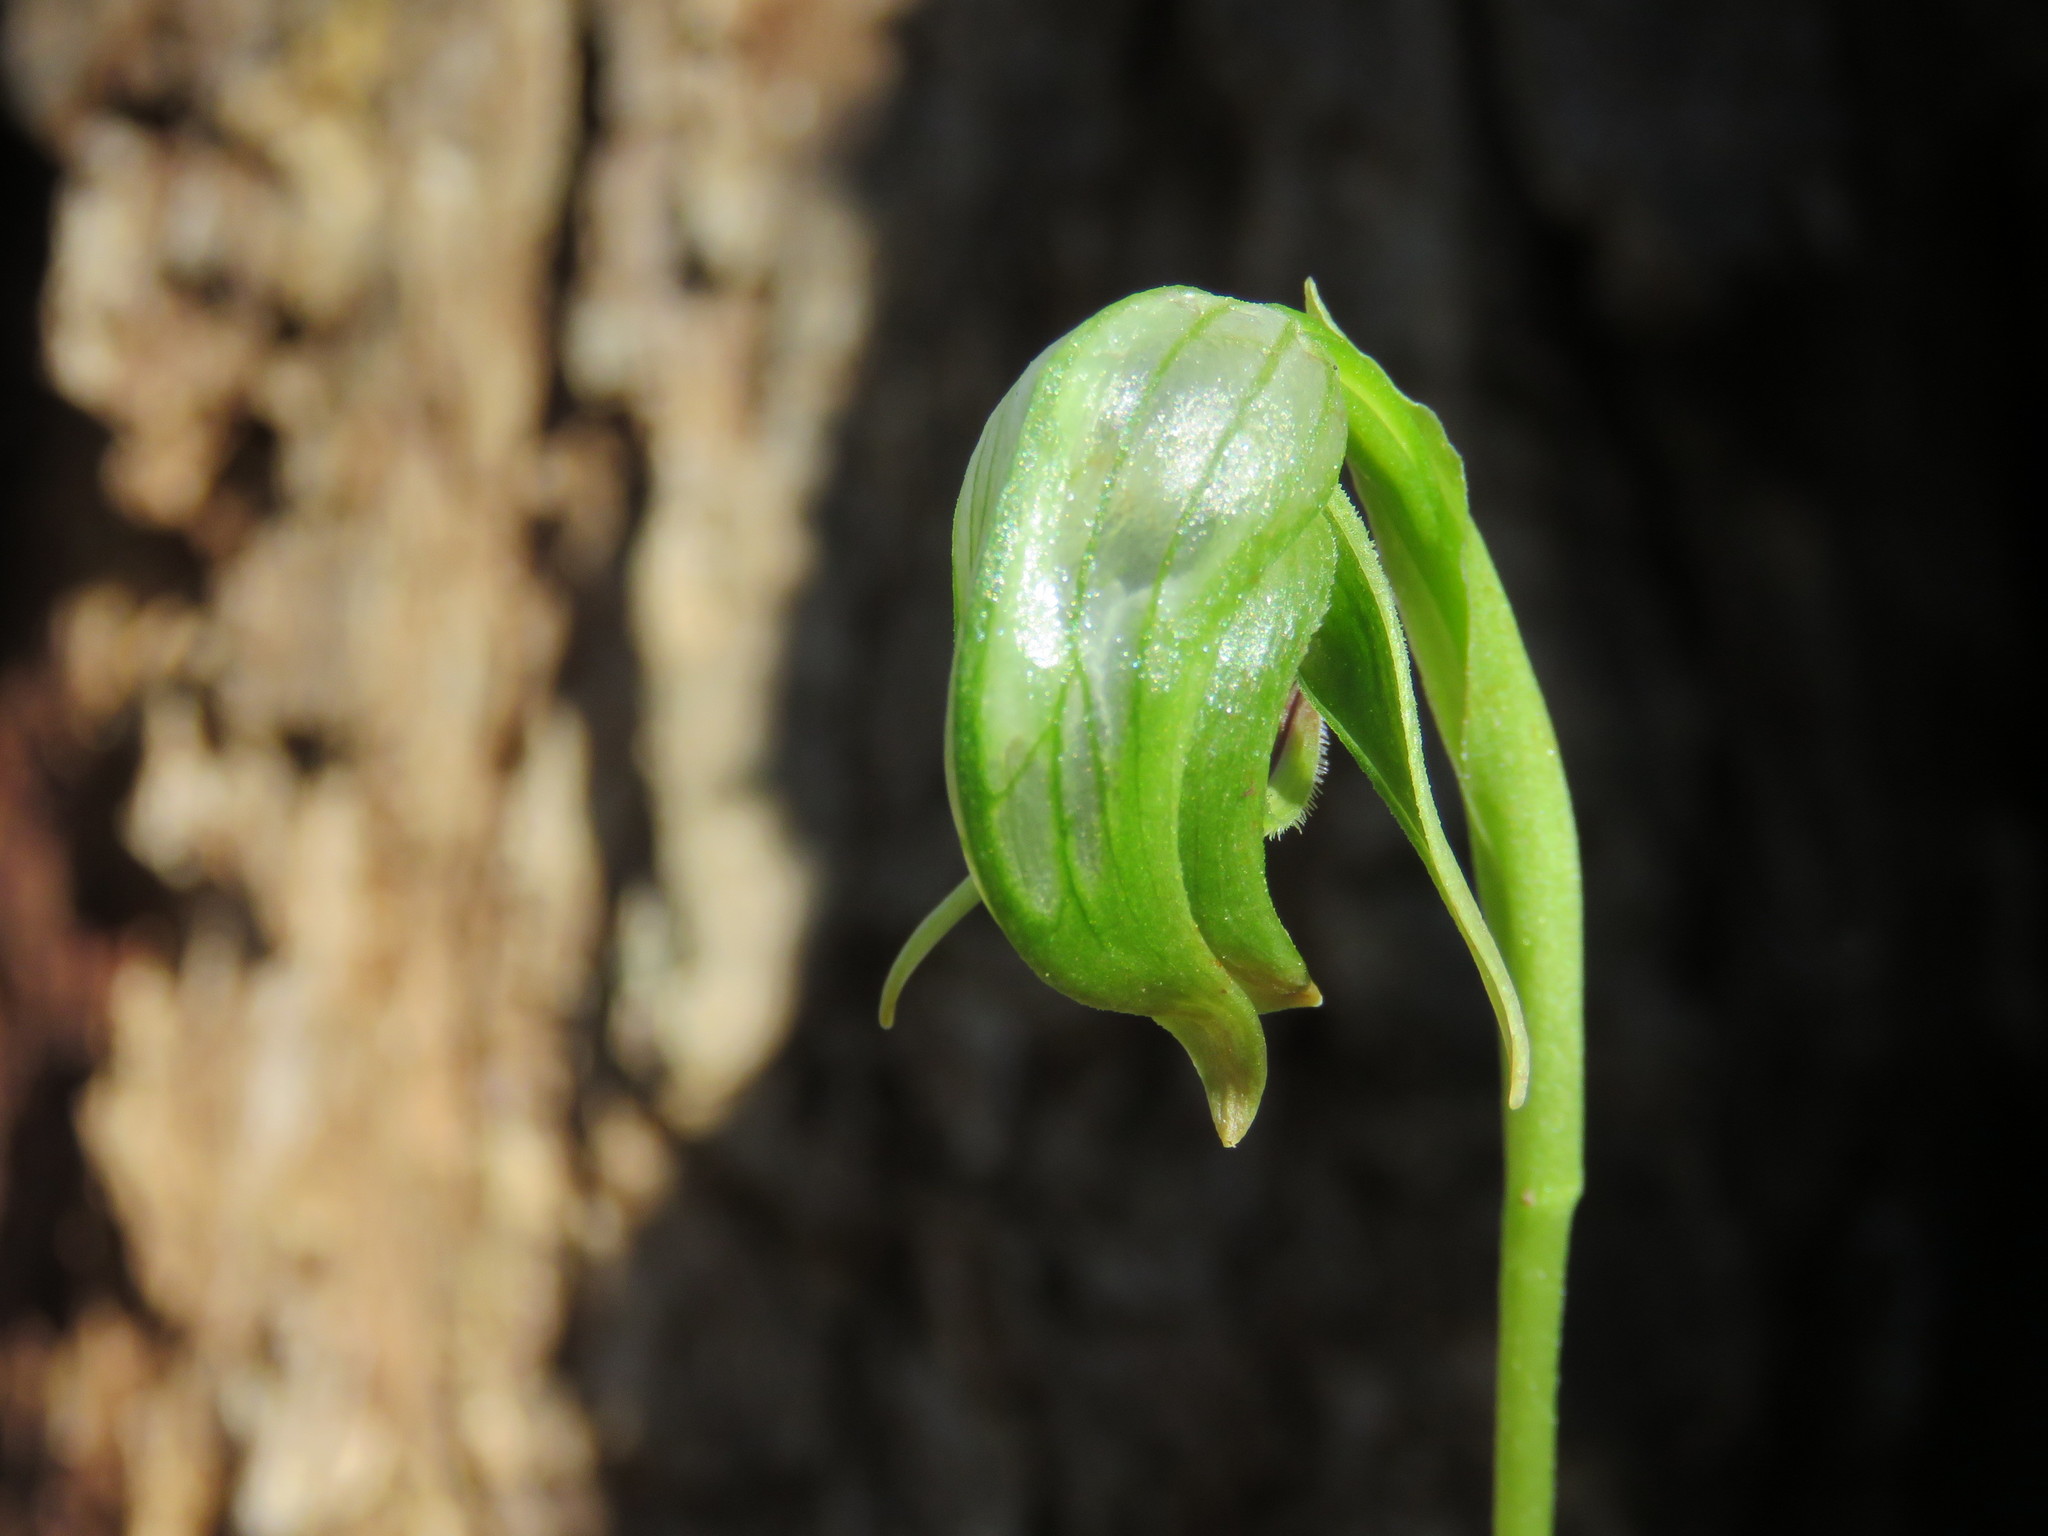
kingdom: Plantae
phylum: Tracheophyta
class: Liliopsida
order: Asparagales
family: Orchidaceae
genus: Pterostylis
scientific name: Pterostylis nutans
